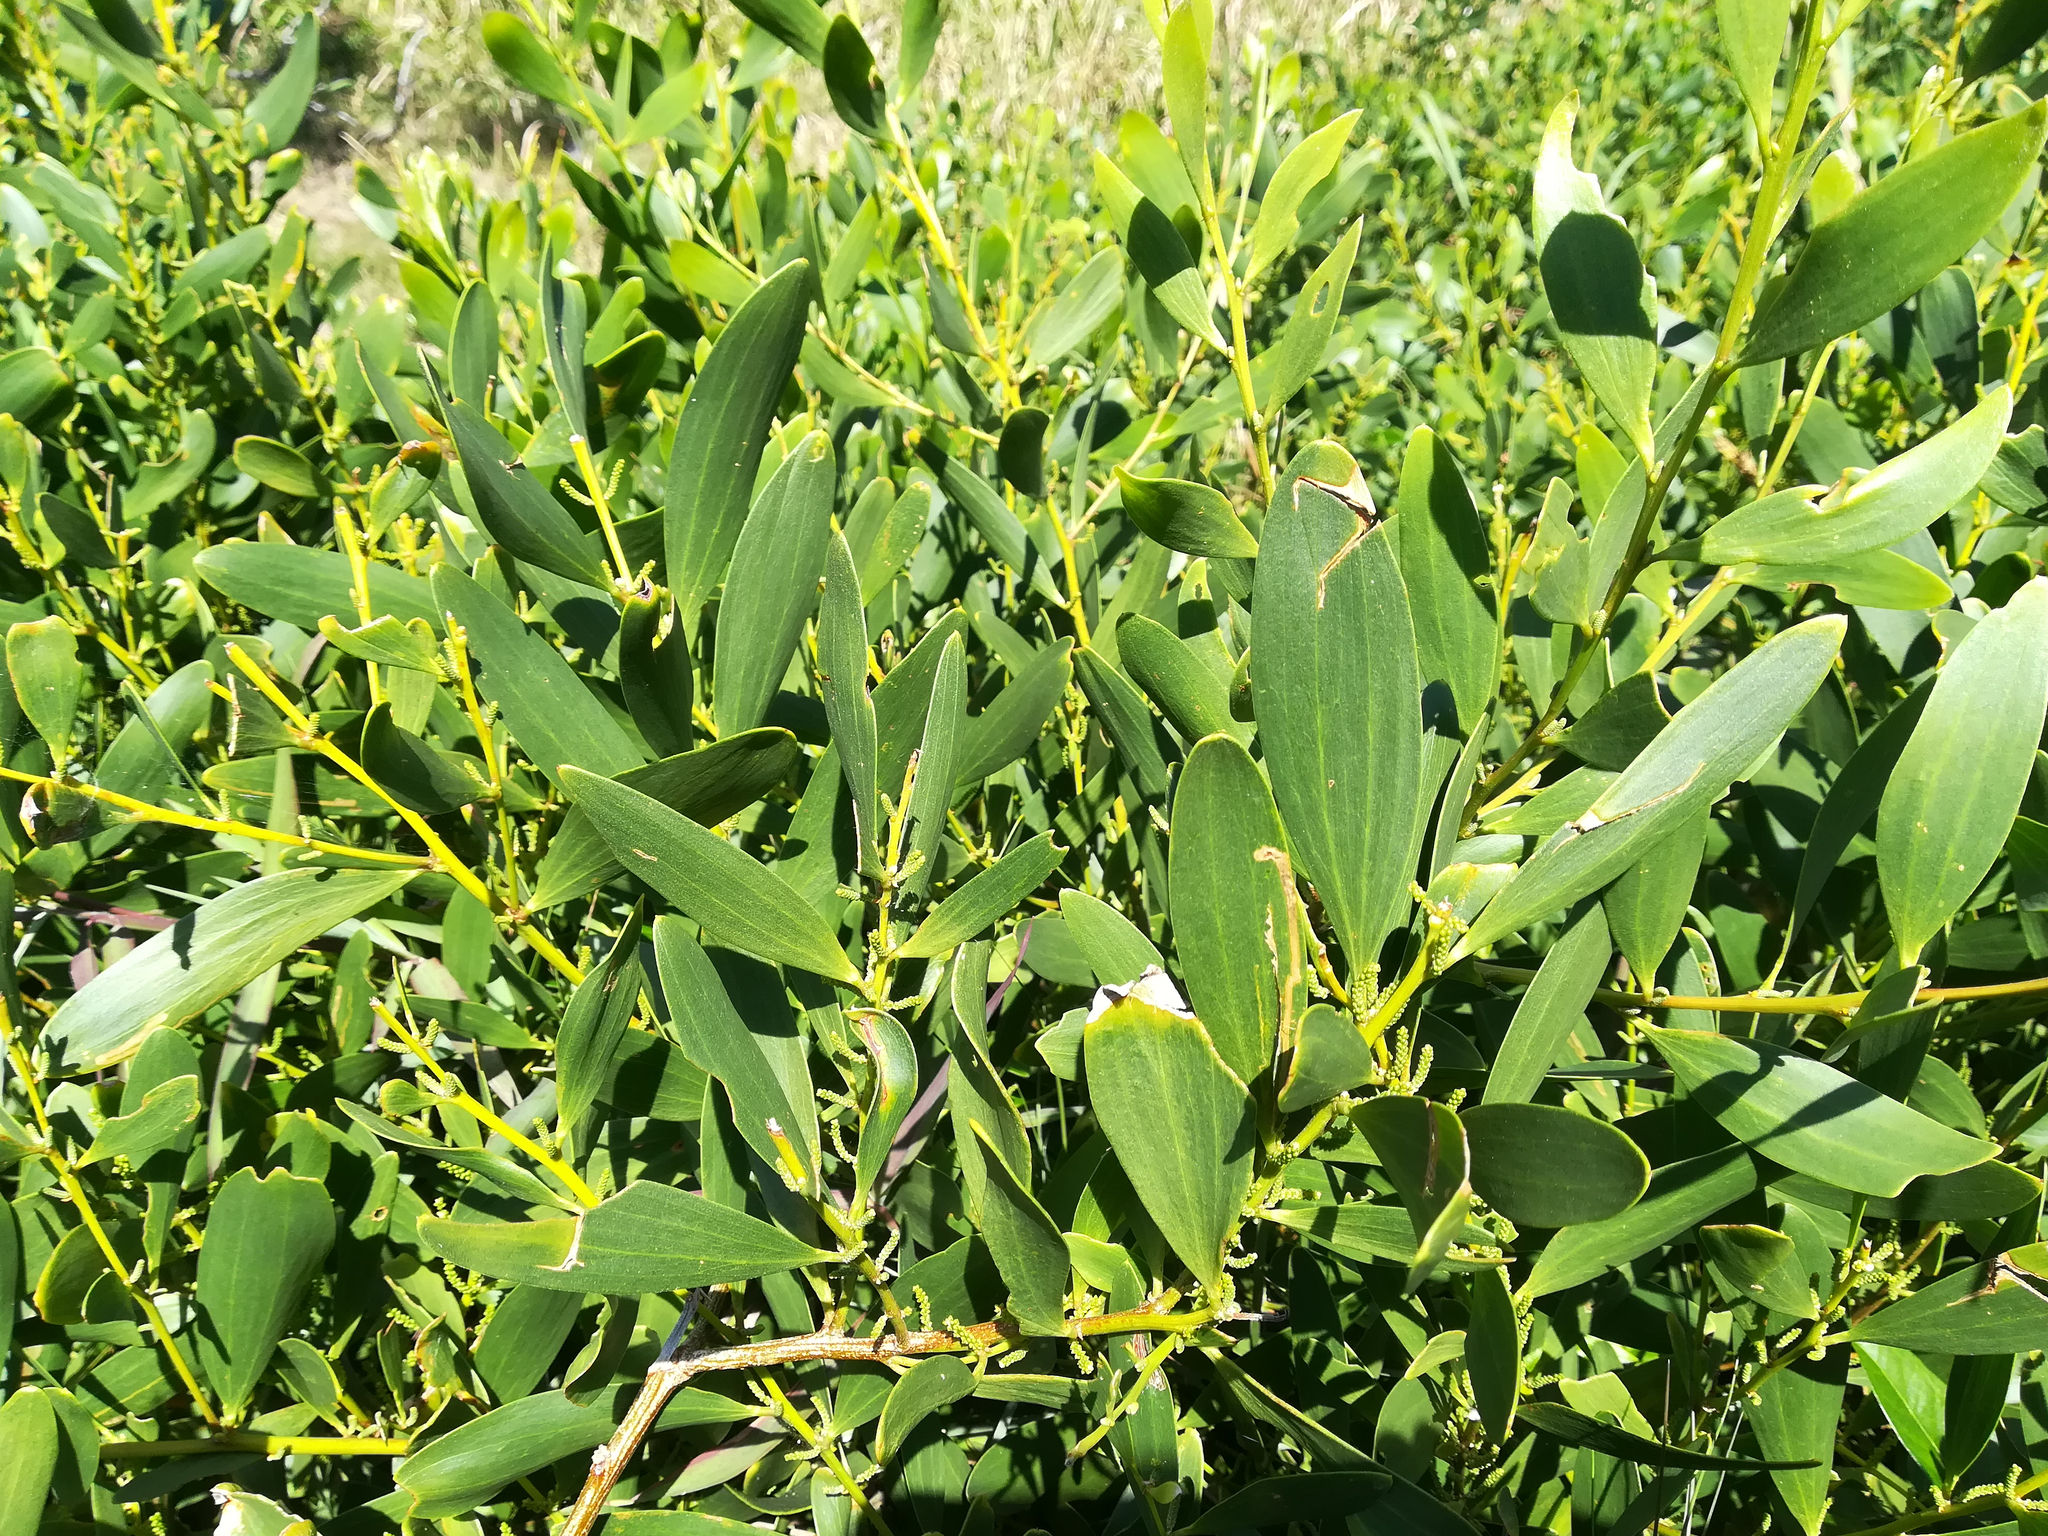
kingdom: Plantae
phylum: Tracheophyta
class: Magnoliopsida
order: Fabales
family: Fabaceae
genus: Acacia
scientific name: Acacia longifolia
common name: Sydney golden wattle
